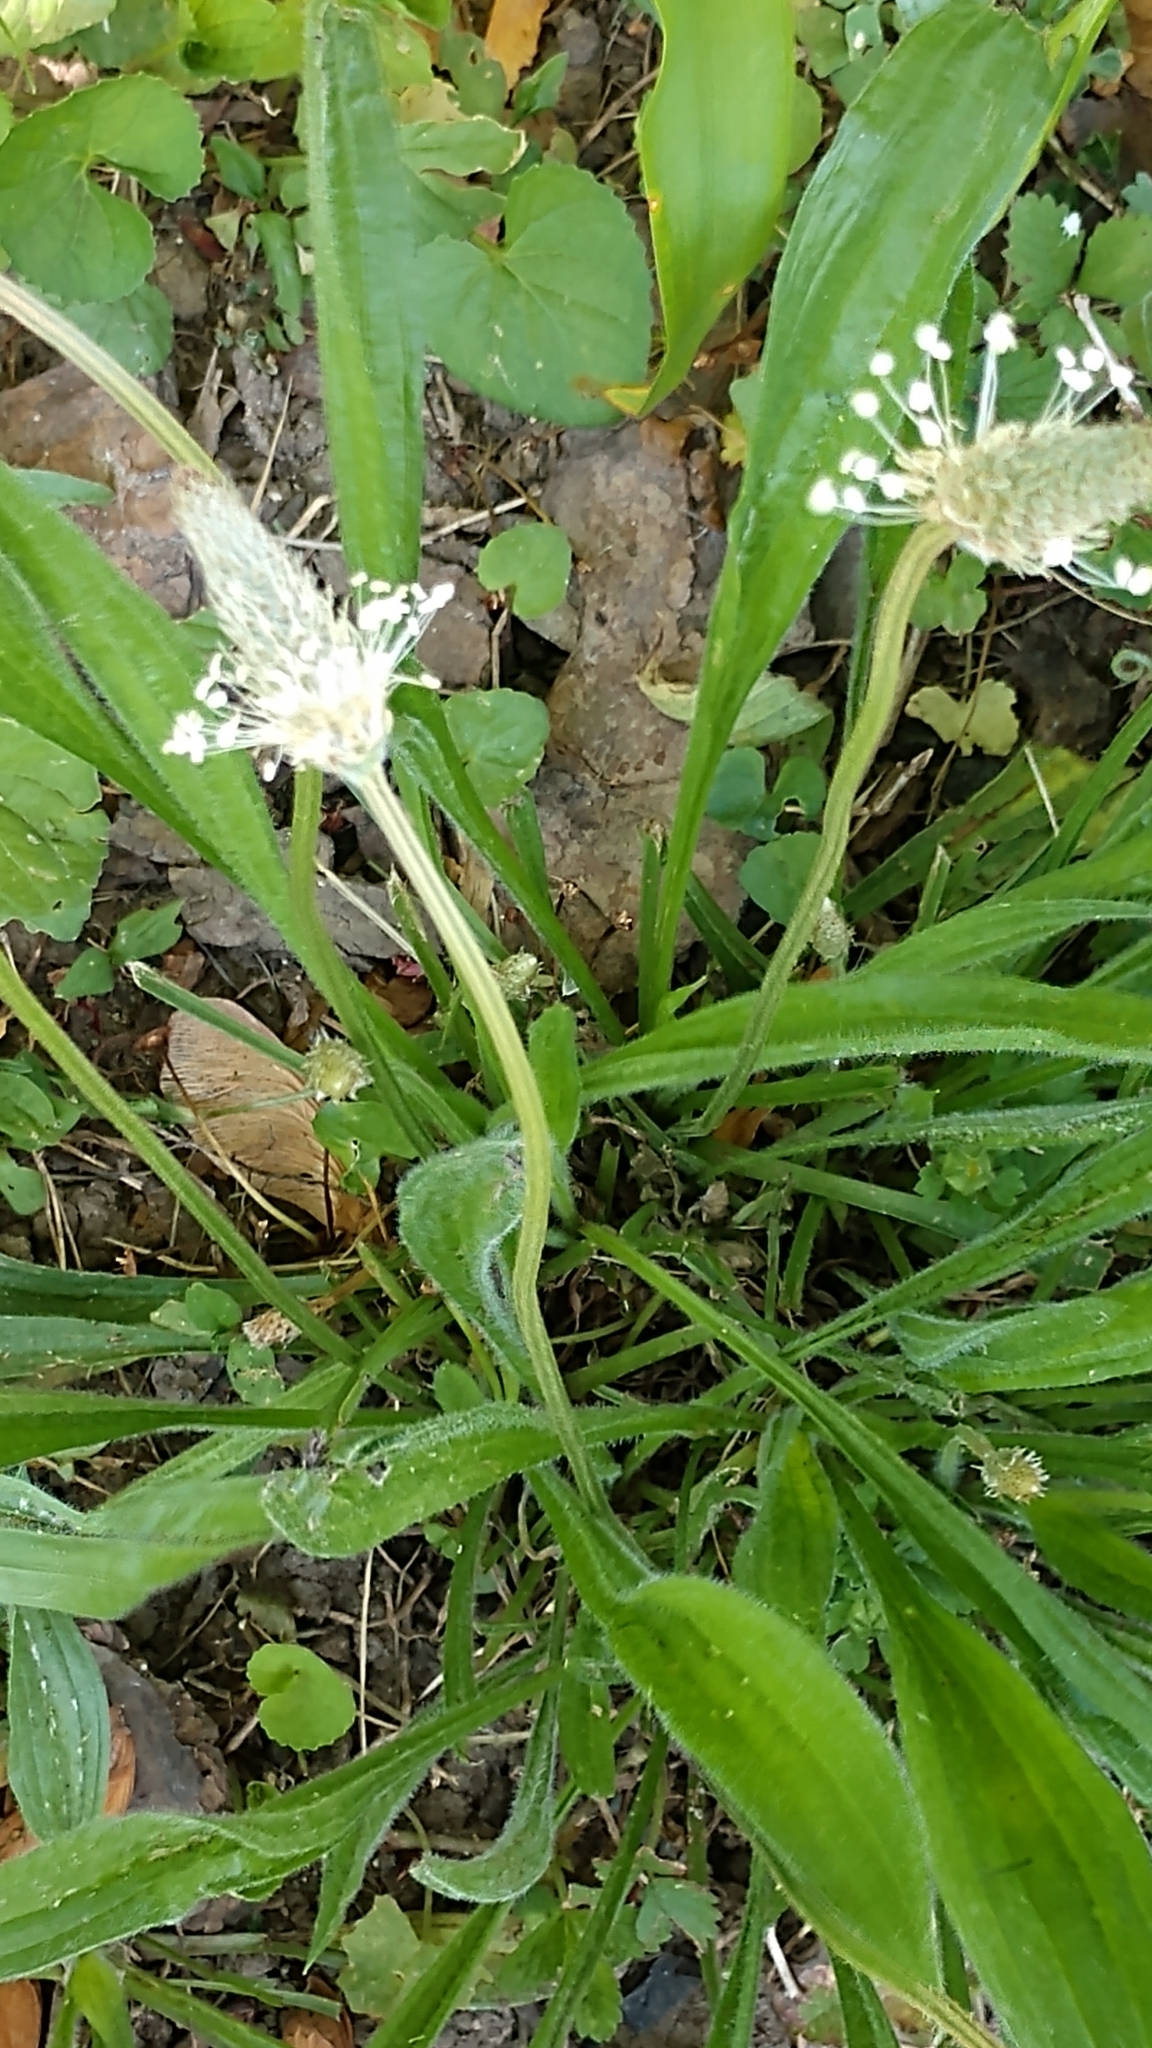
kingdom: Plantae
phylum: Tracheophyta
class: Magnoliopsida
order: Lamiales
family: Plantaginaceae
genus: Plantago
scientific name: Plantago lanceolata
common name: Ribwort plantain
